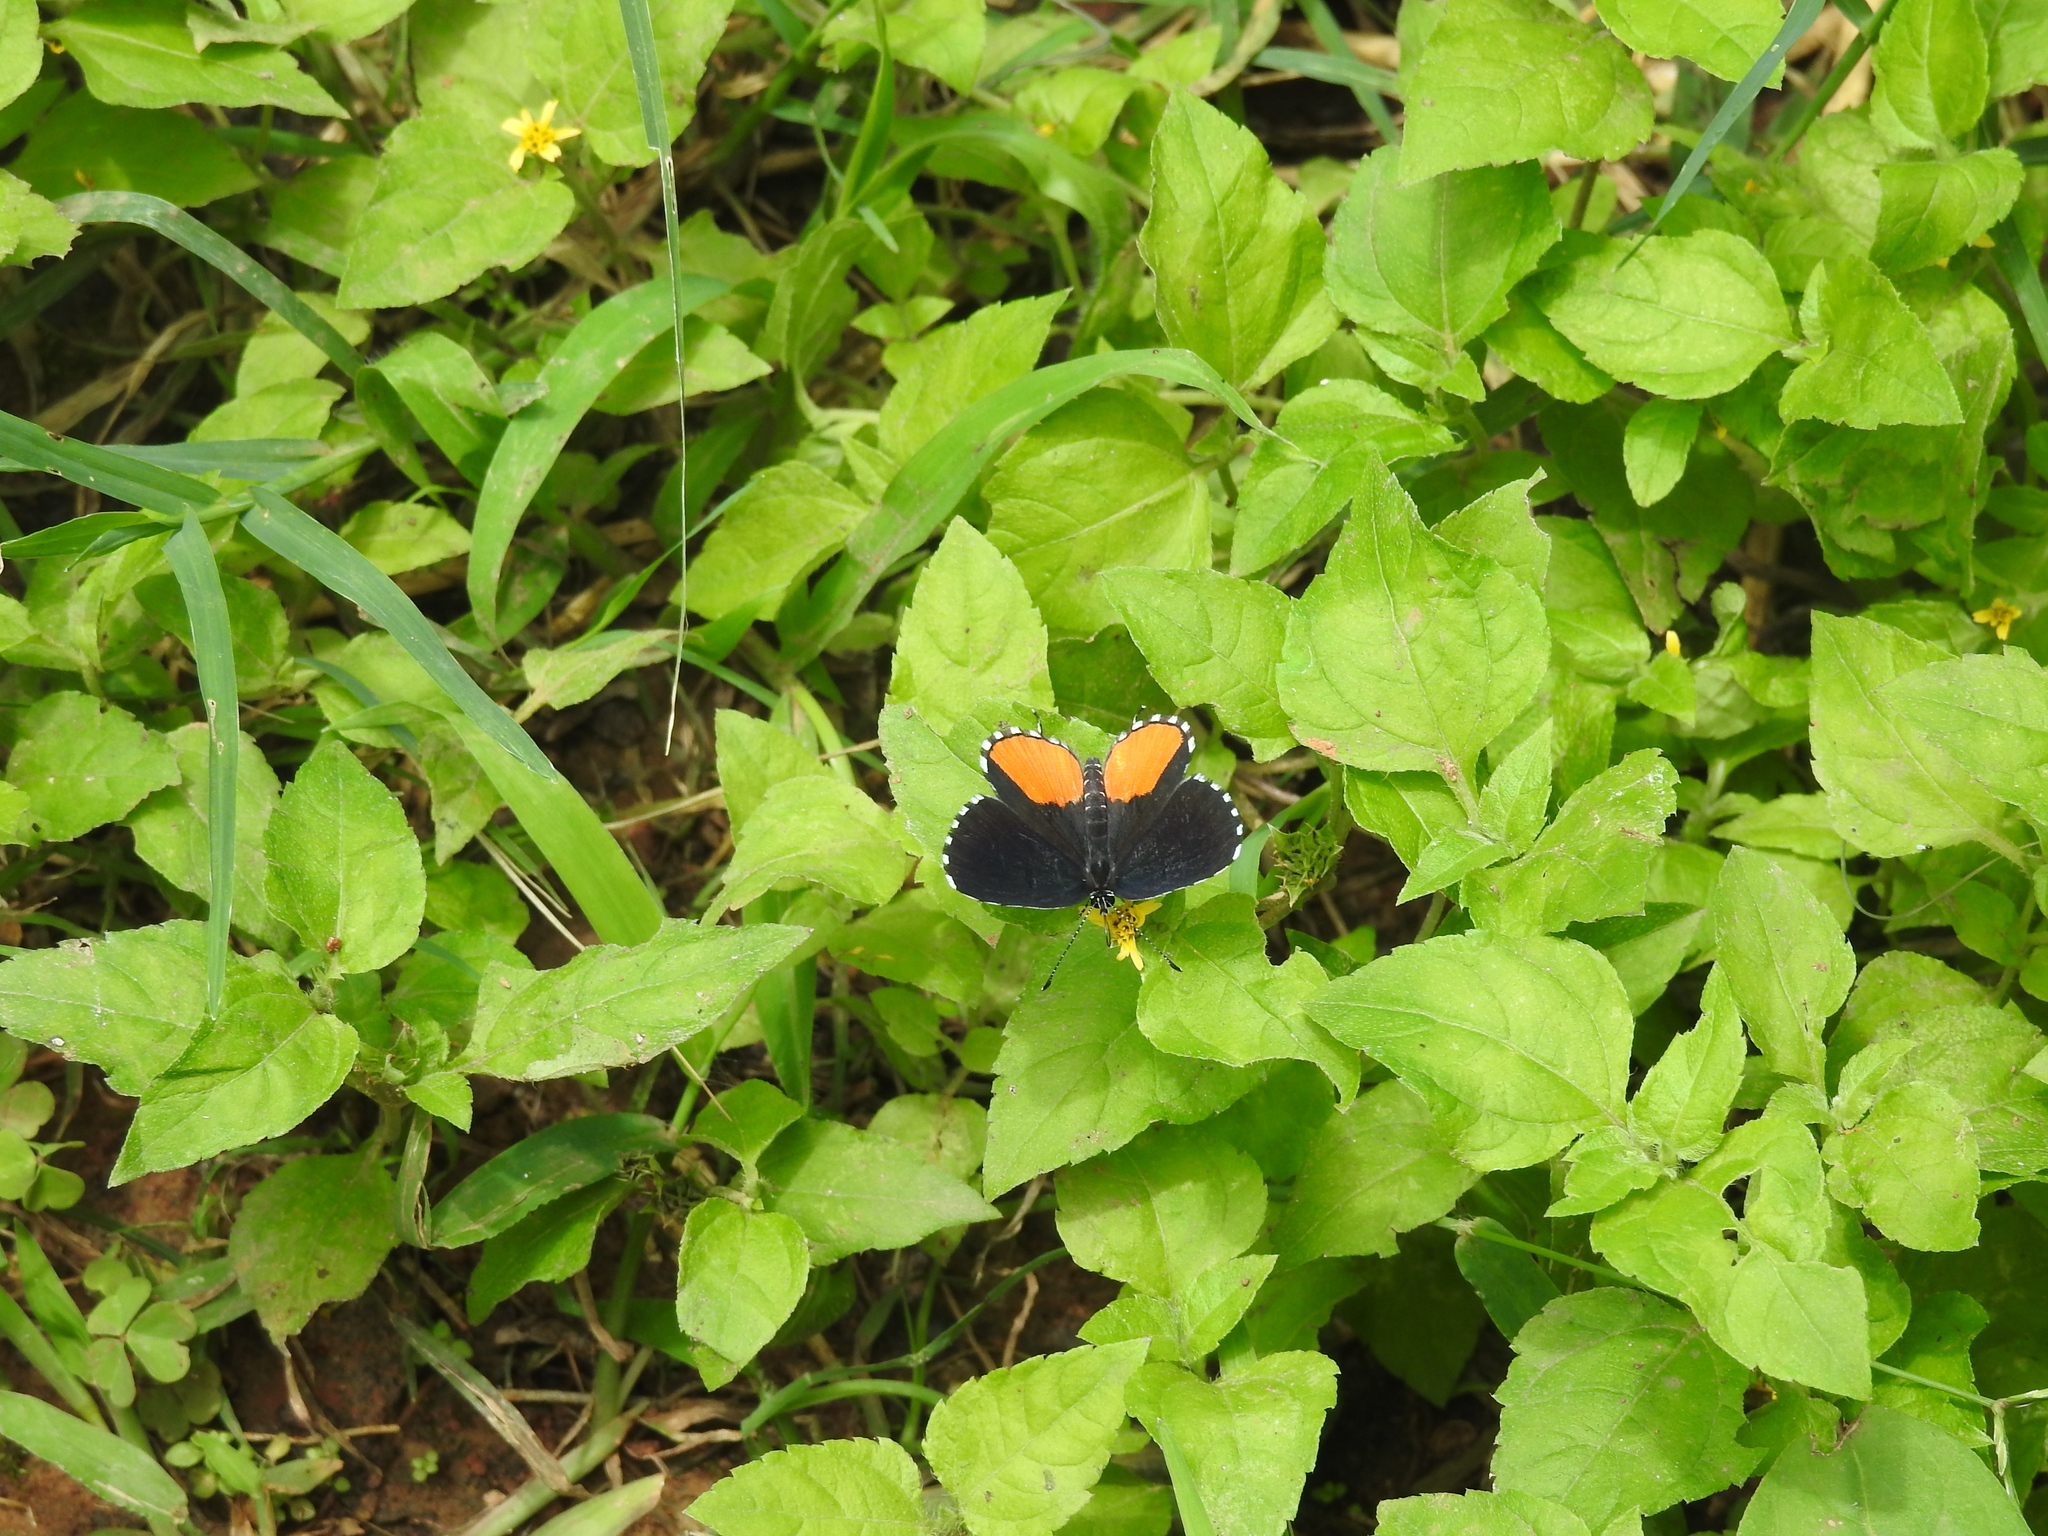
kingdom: Animalia
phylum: Arthropoda
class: Insecta
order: Lepidoptera
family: Lycaenidae
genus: Talicada
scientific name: Talicada nyseus
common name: Red pierrot
